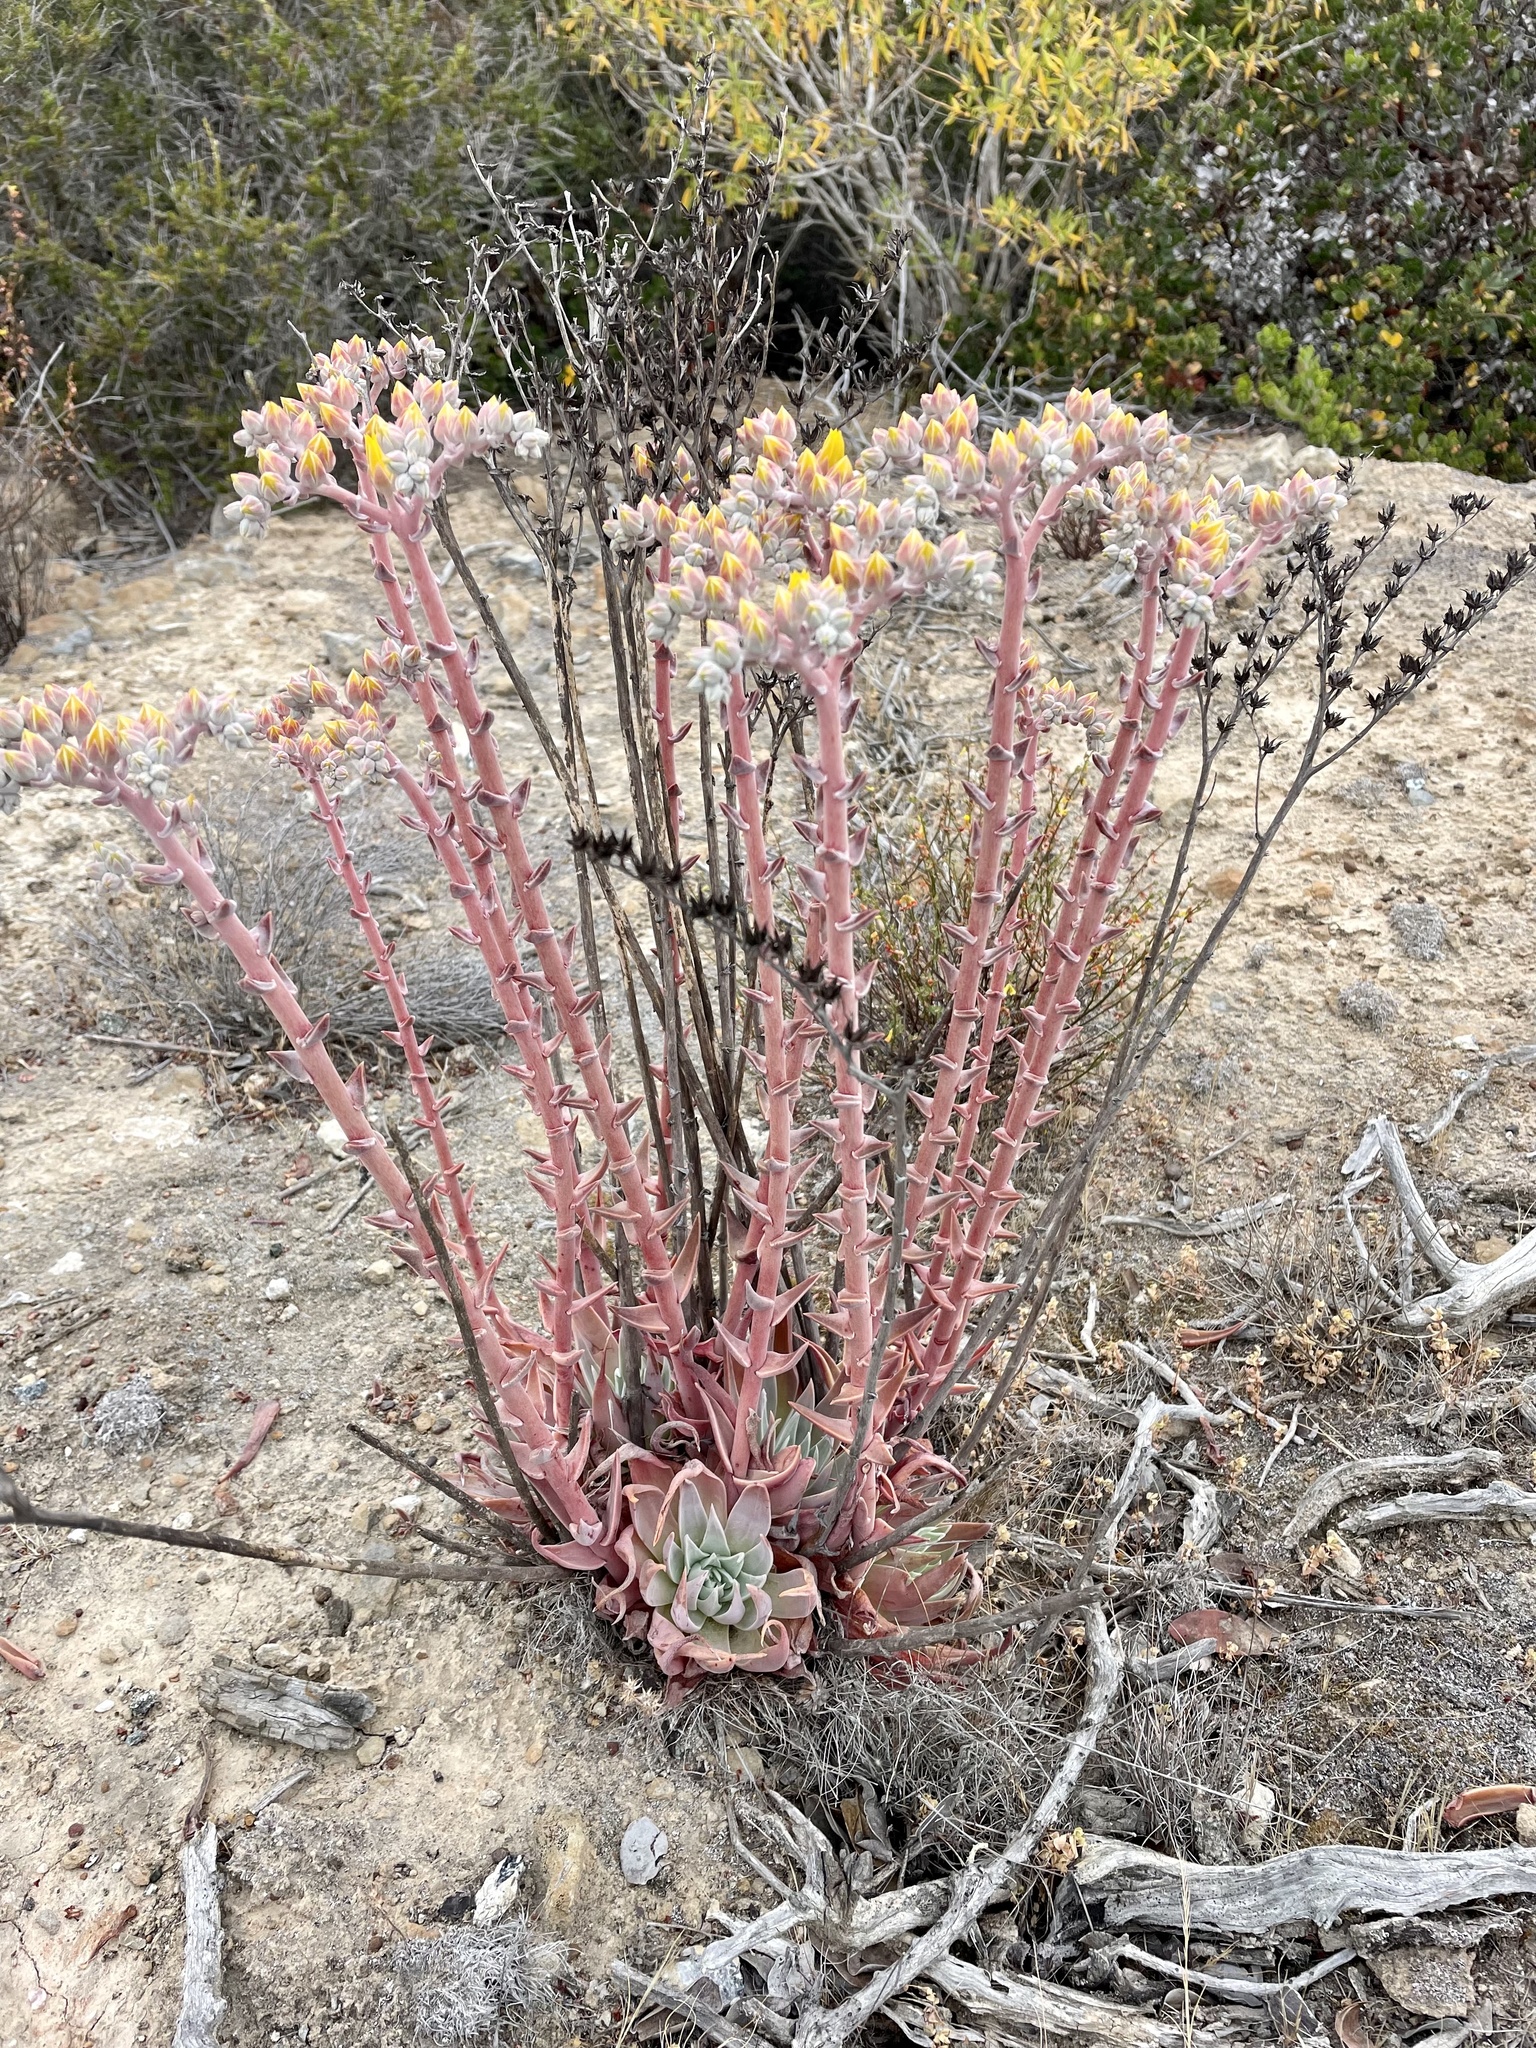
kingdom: Plantae
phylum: Tracheophyta
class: Magnoliopsida
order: Saxifragales
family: Crassulaceae
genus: Dudleya
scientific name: Dudleya caespitosa
